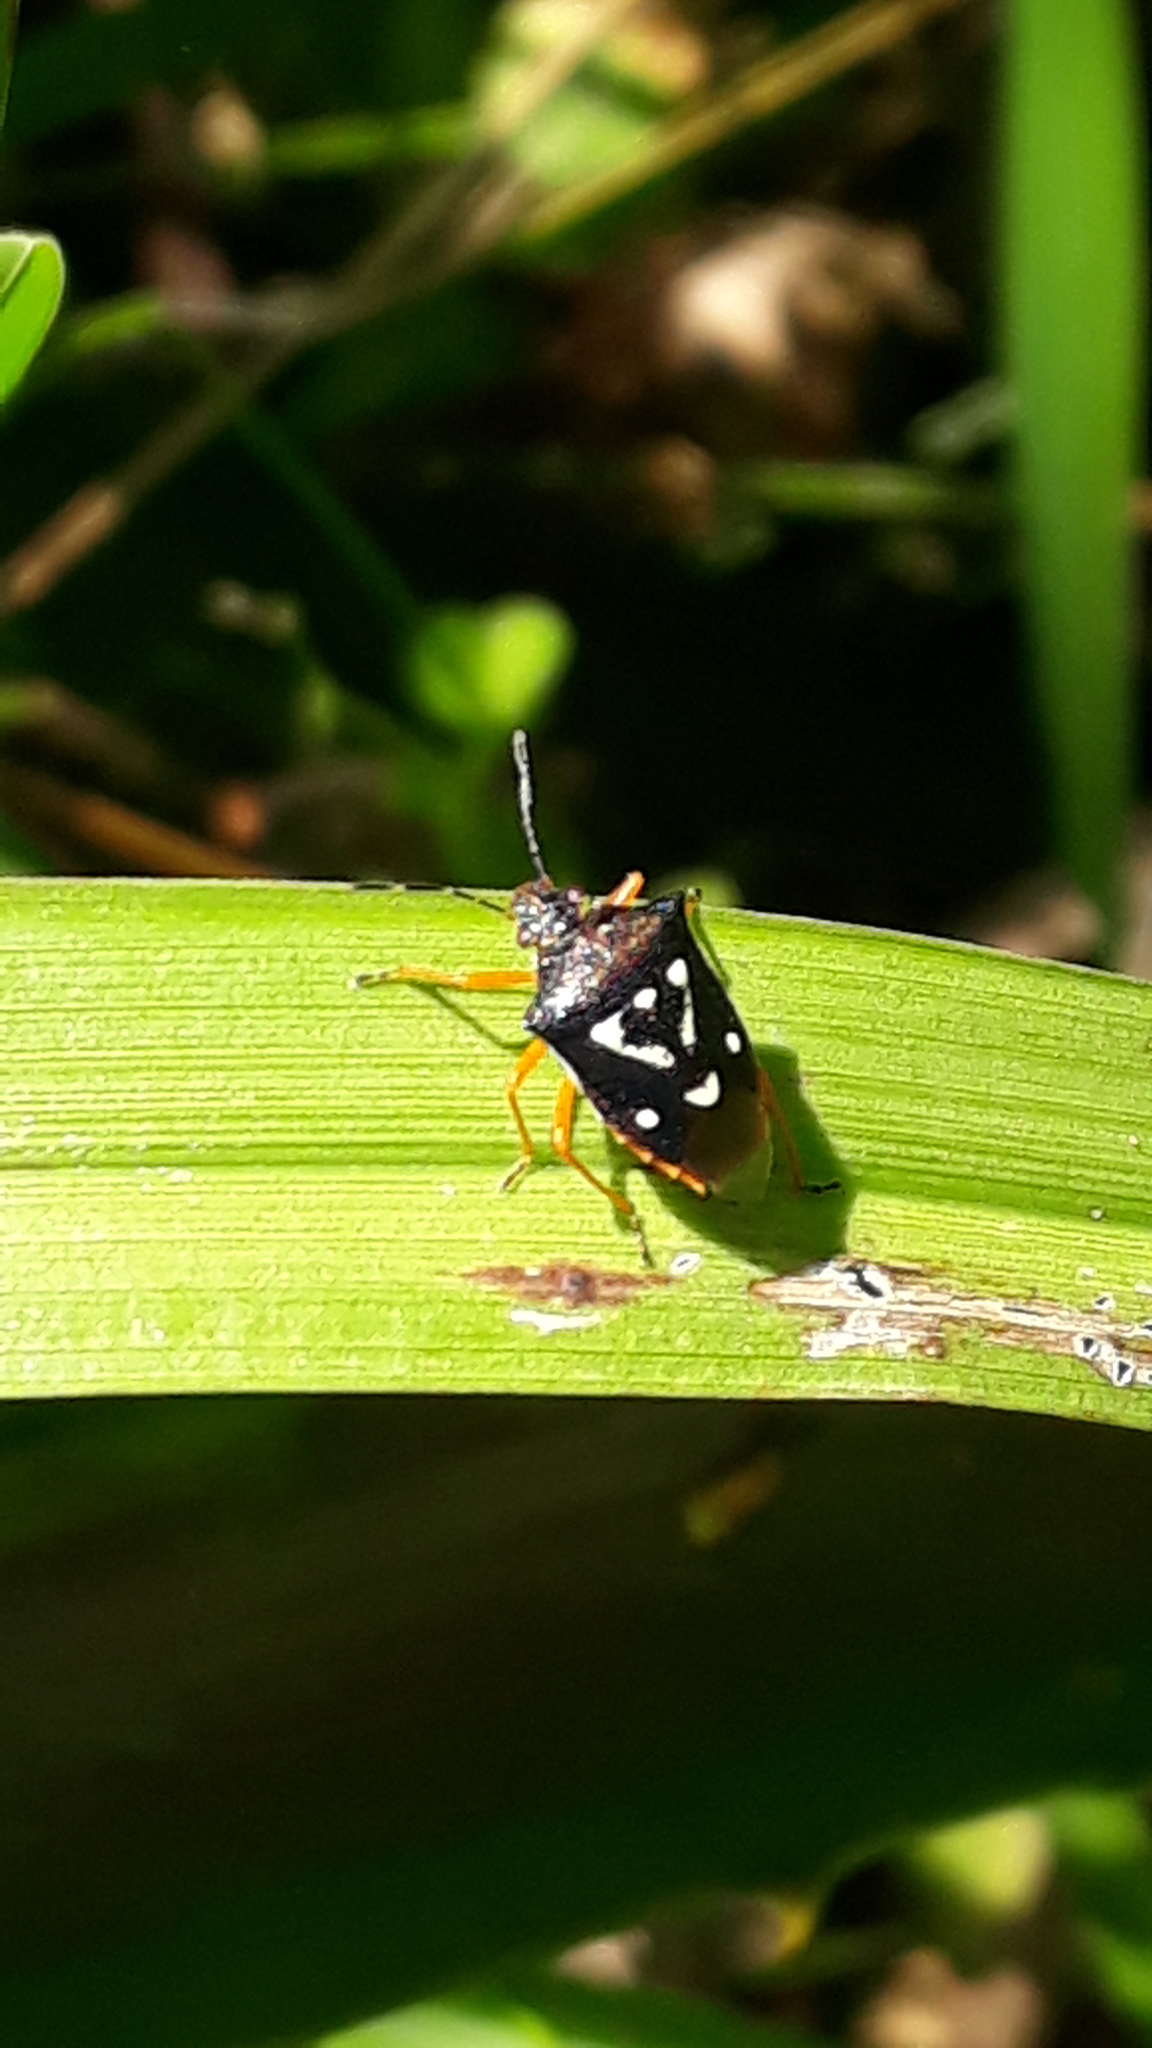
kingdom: Animalia
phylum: Arthropoda
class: Insecta
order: Hemiptera
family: Pentatomidae
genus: Mormidea
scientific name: Mormidea v-luteum
